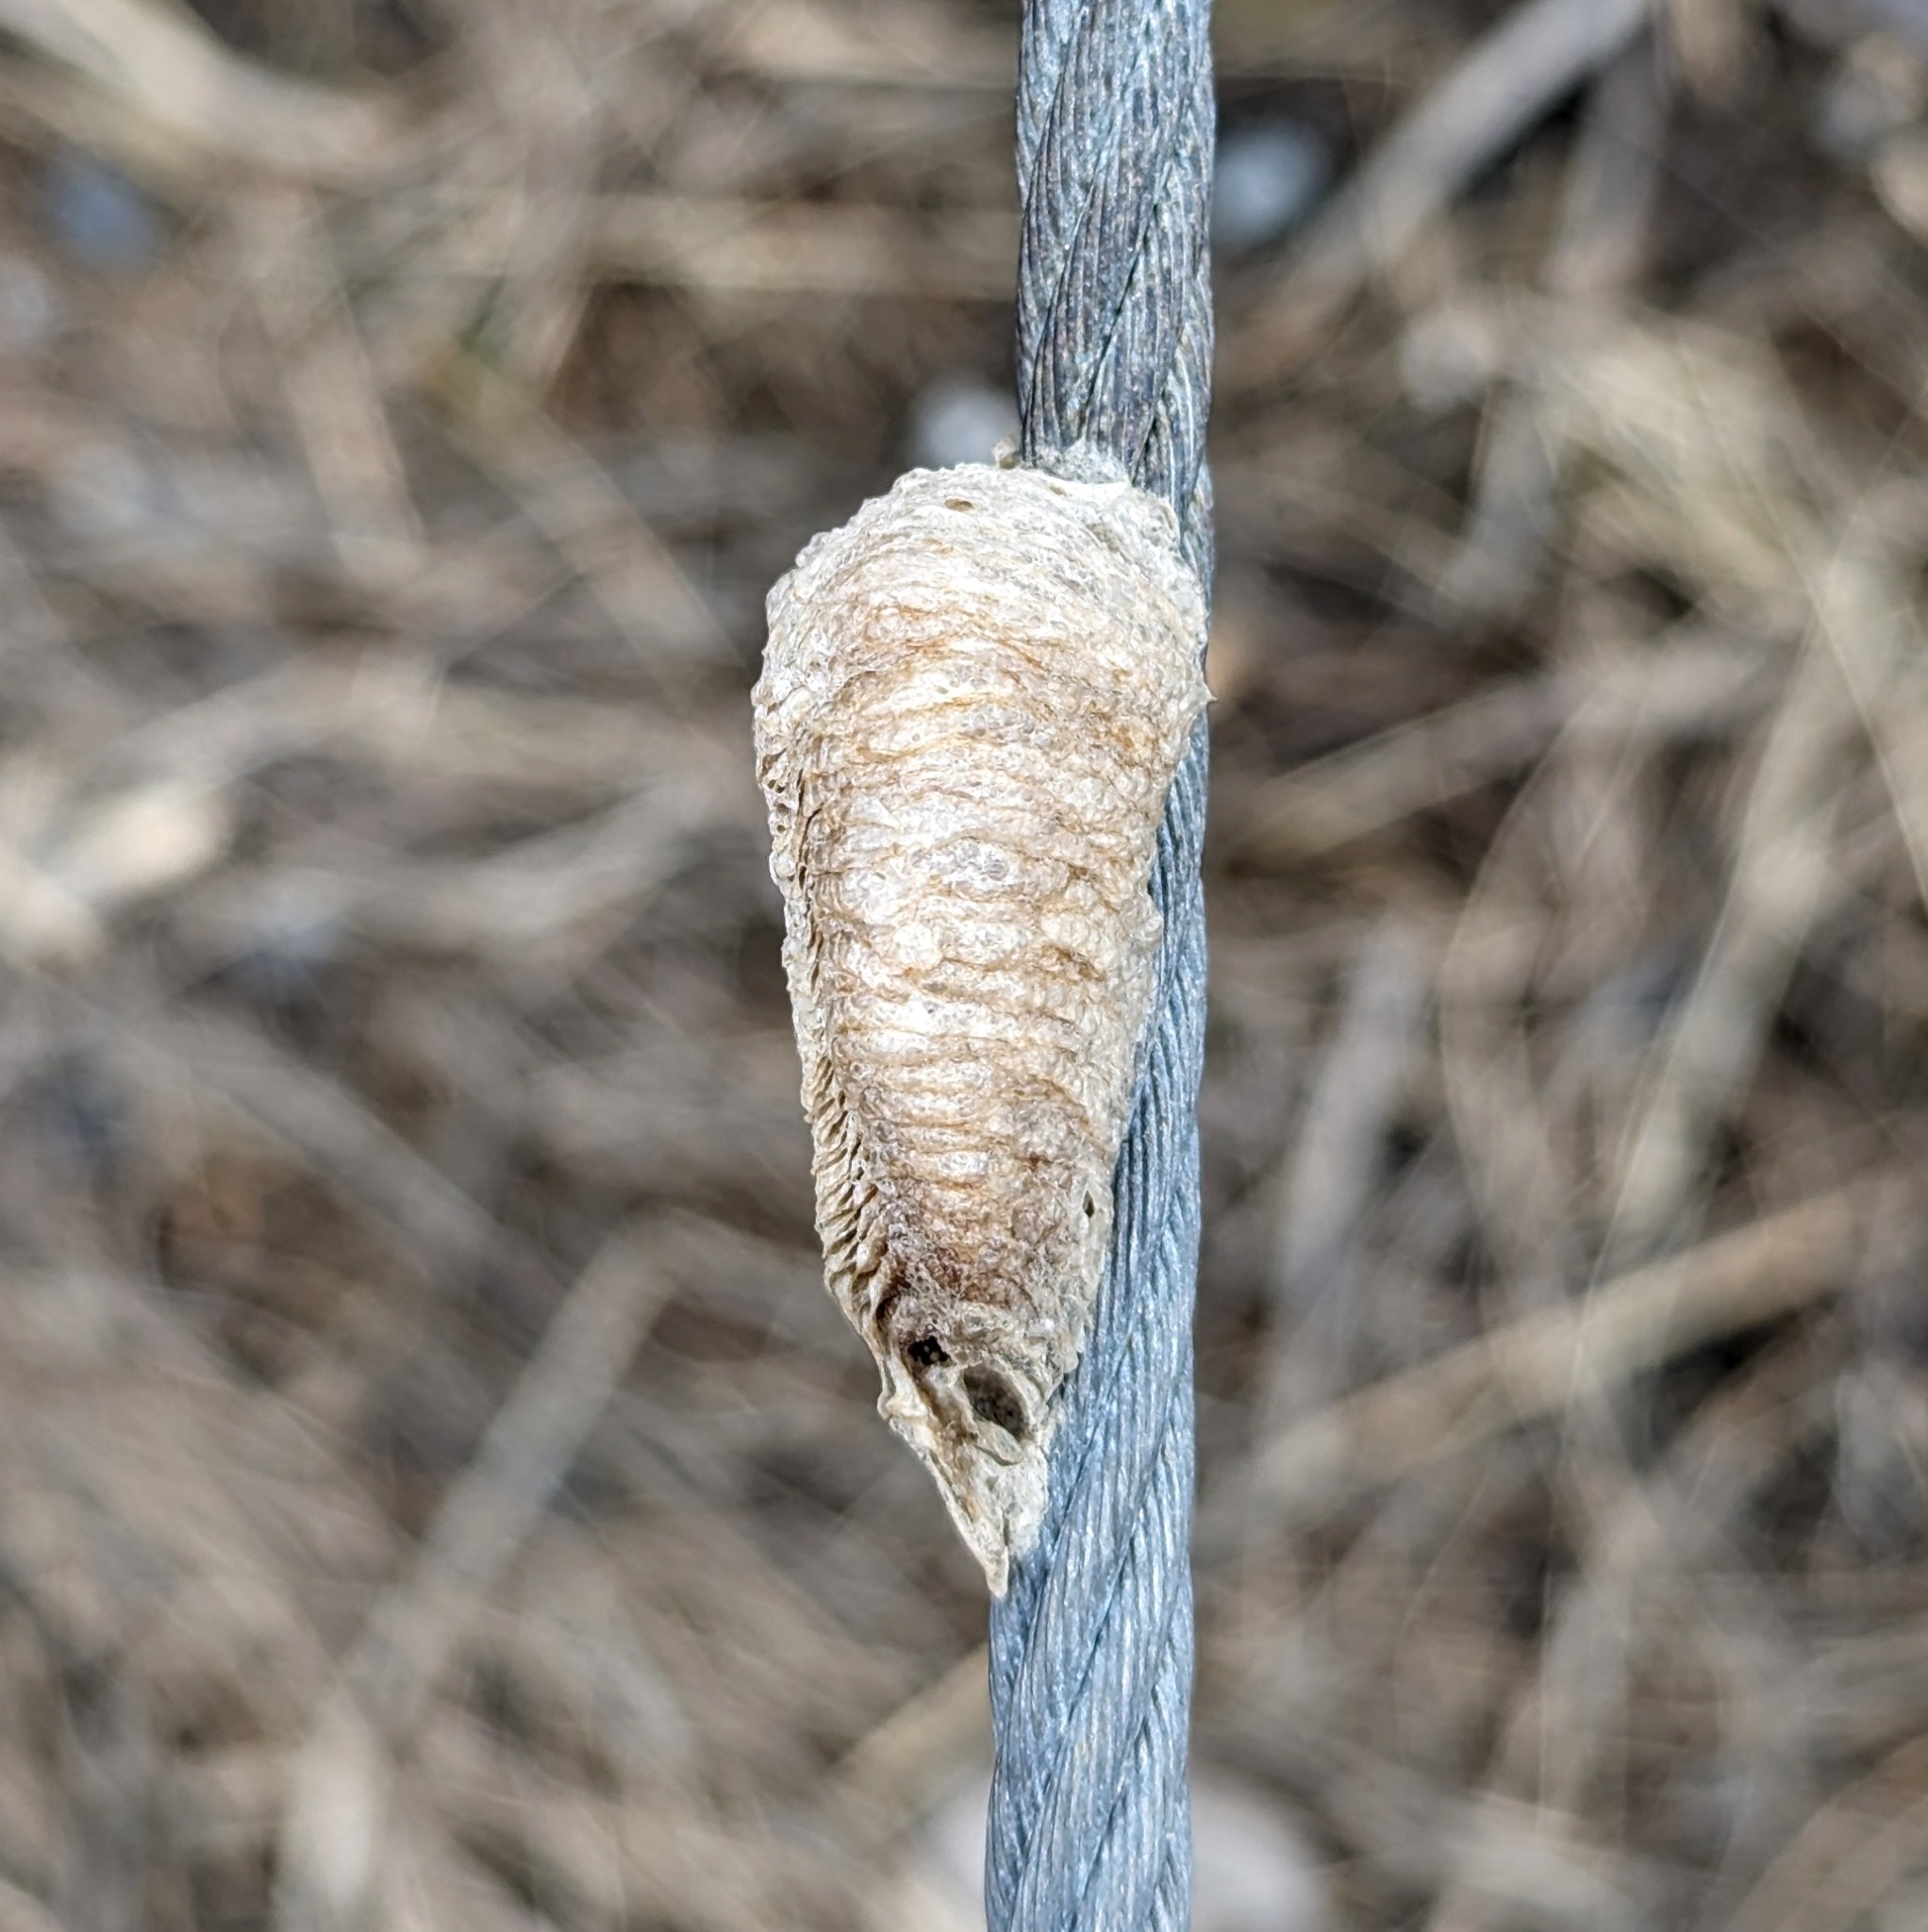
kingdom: Animalia
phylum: Arthropoda
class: Insecta
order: Mantodea
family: Mantidae
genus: Mantis
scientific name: Mantis religiosa
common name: Praying mantis
